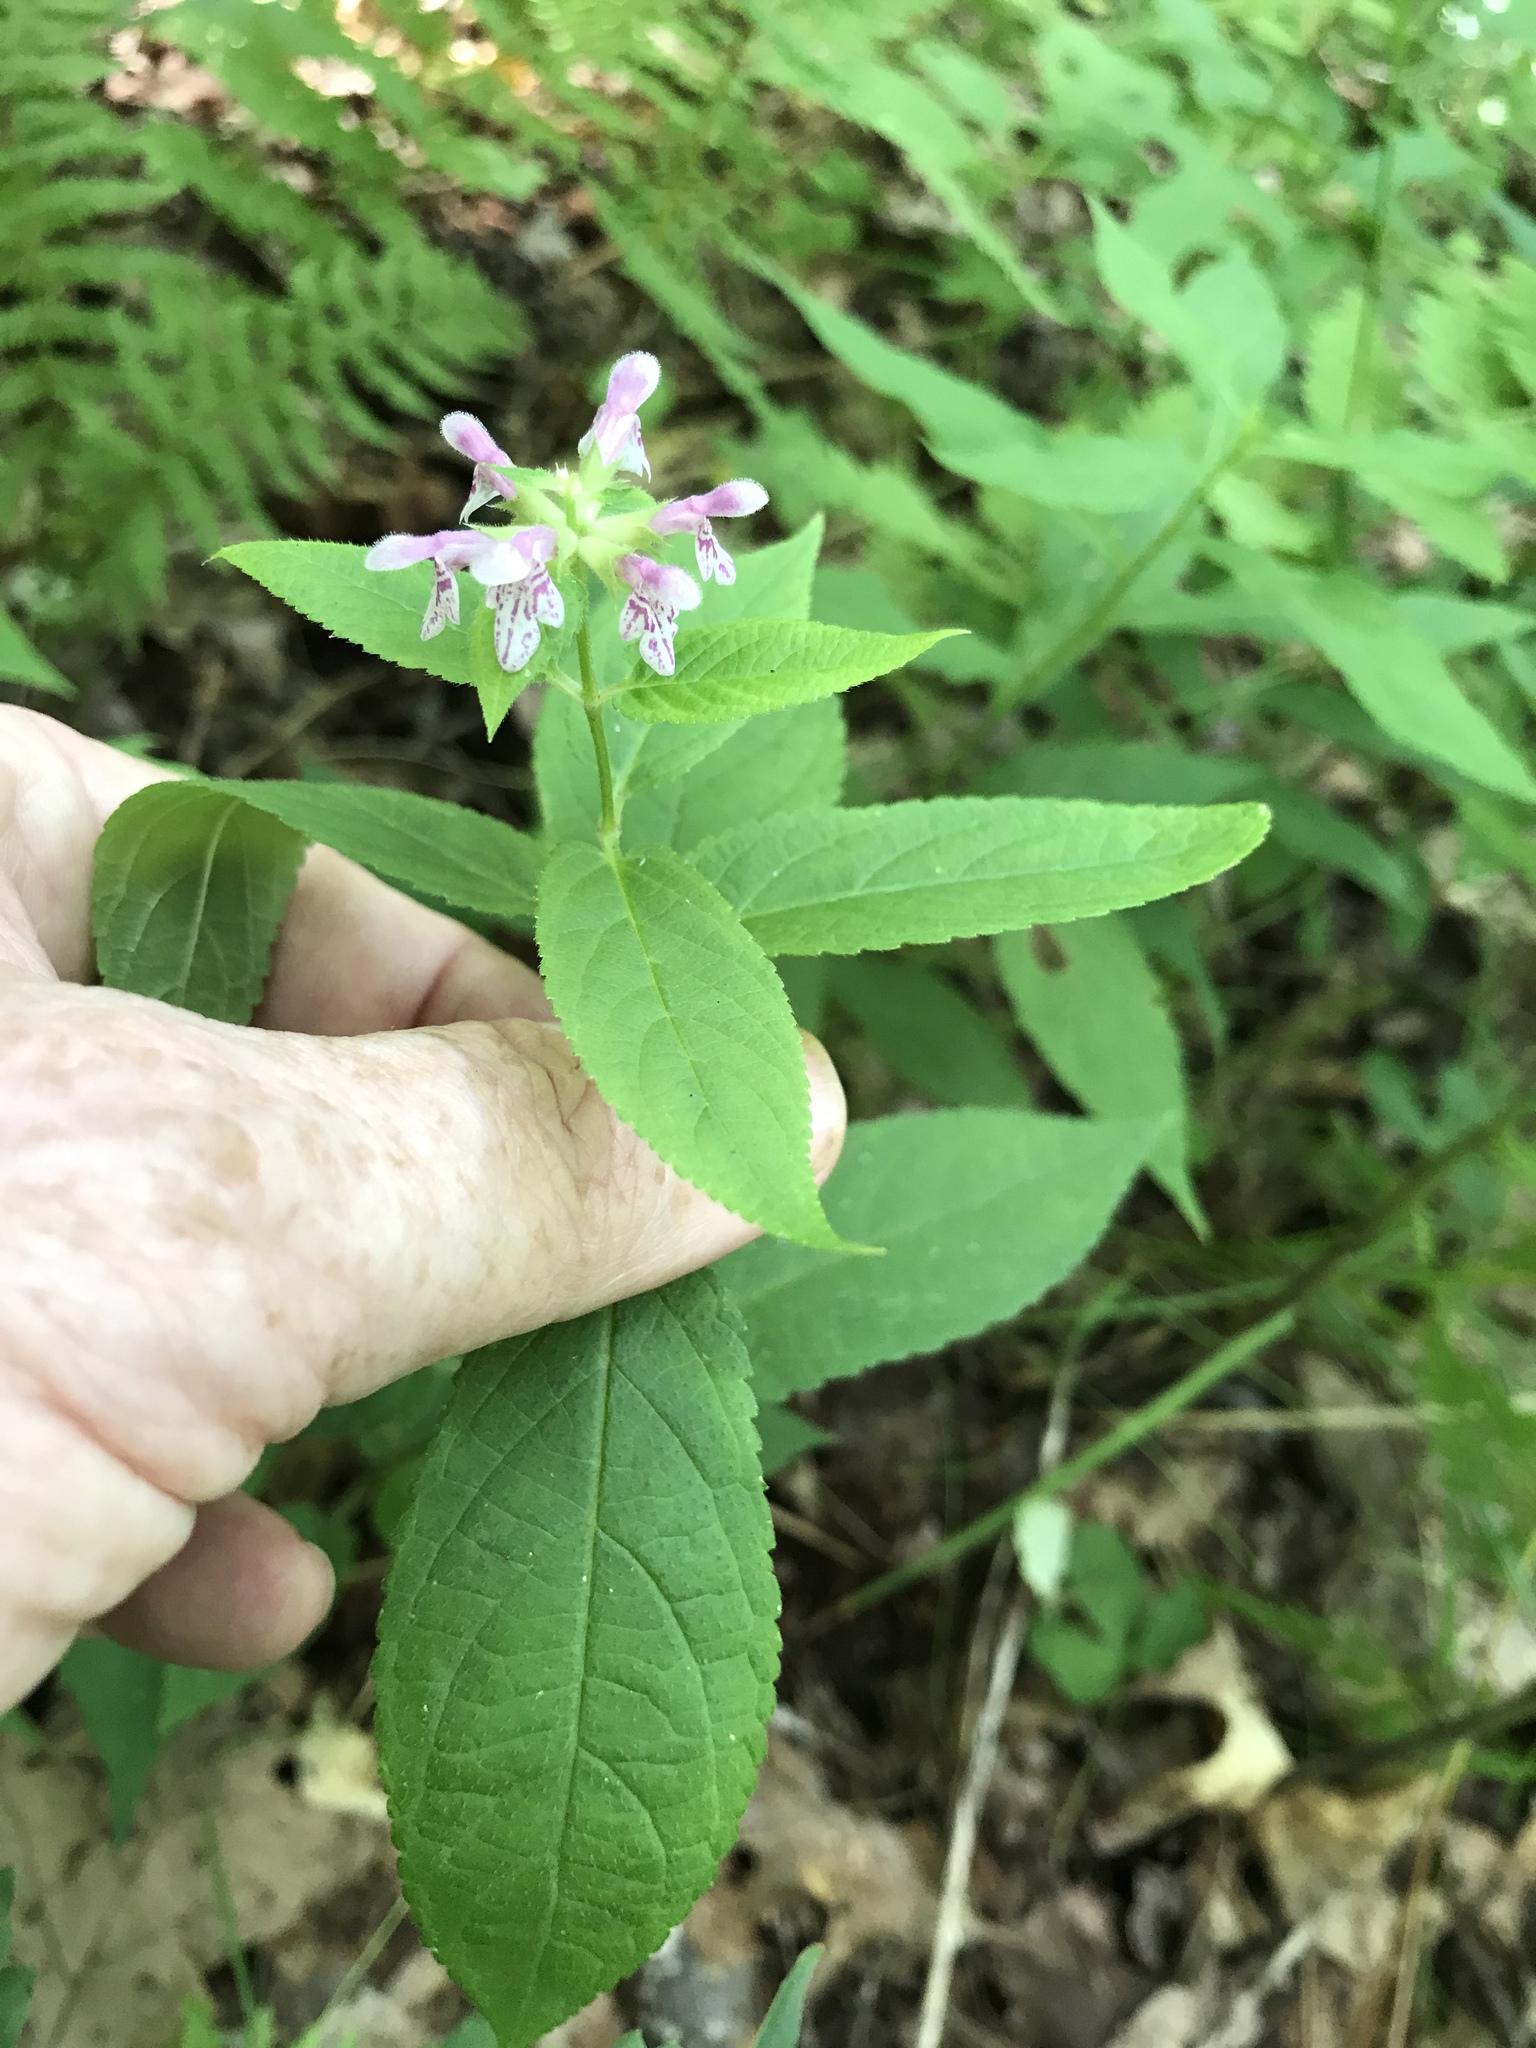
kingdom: Plantae
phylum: Tracheophyta
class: Magnoliopsida
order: Lamiales
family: Lamiaceae
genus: Stachys
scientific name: Stachys latidens
